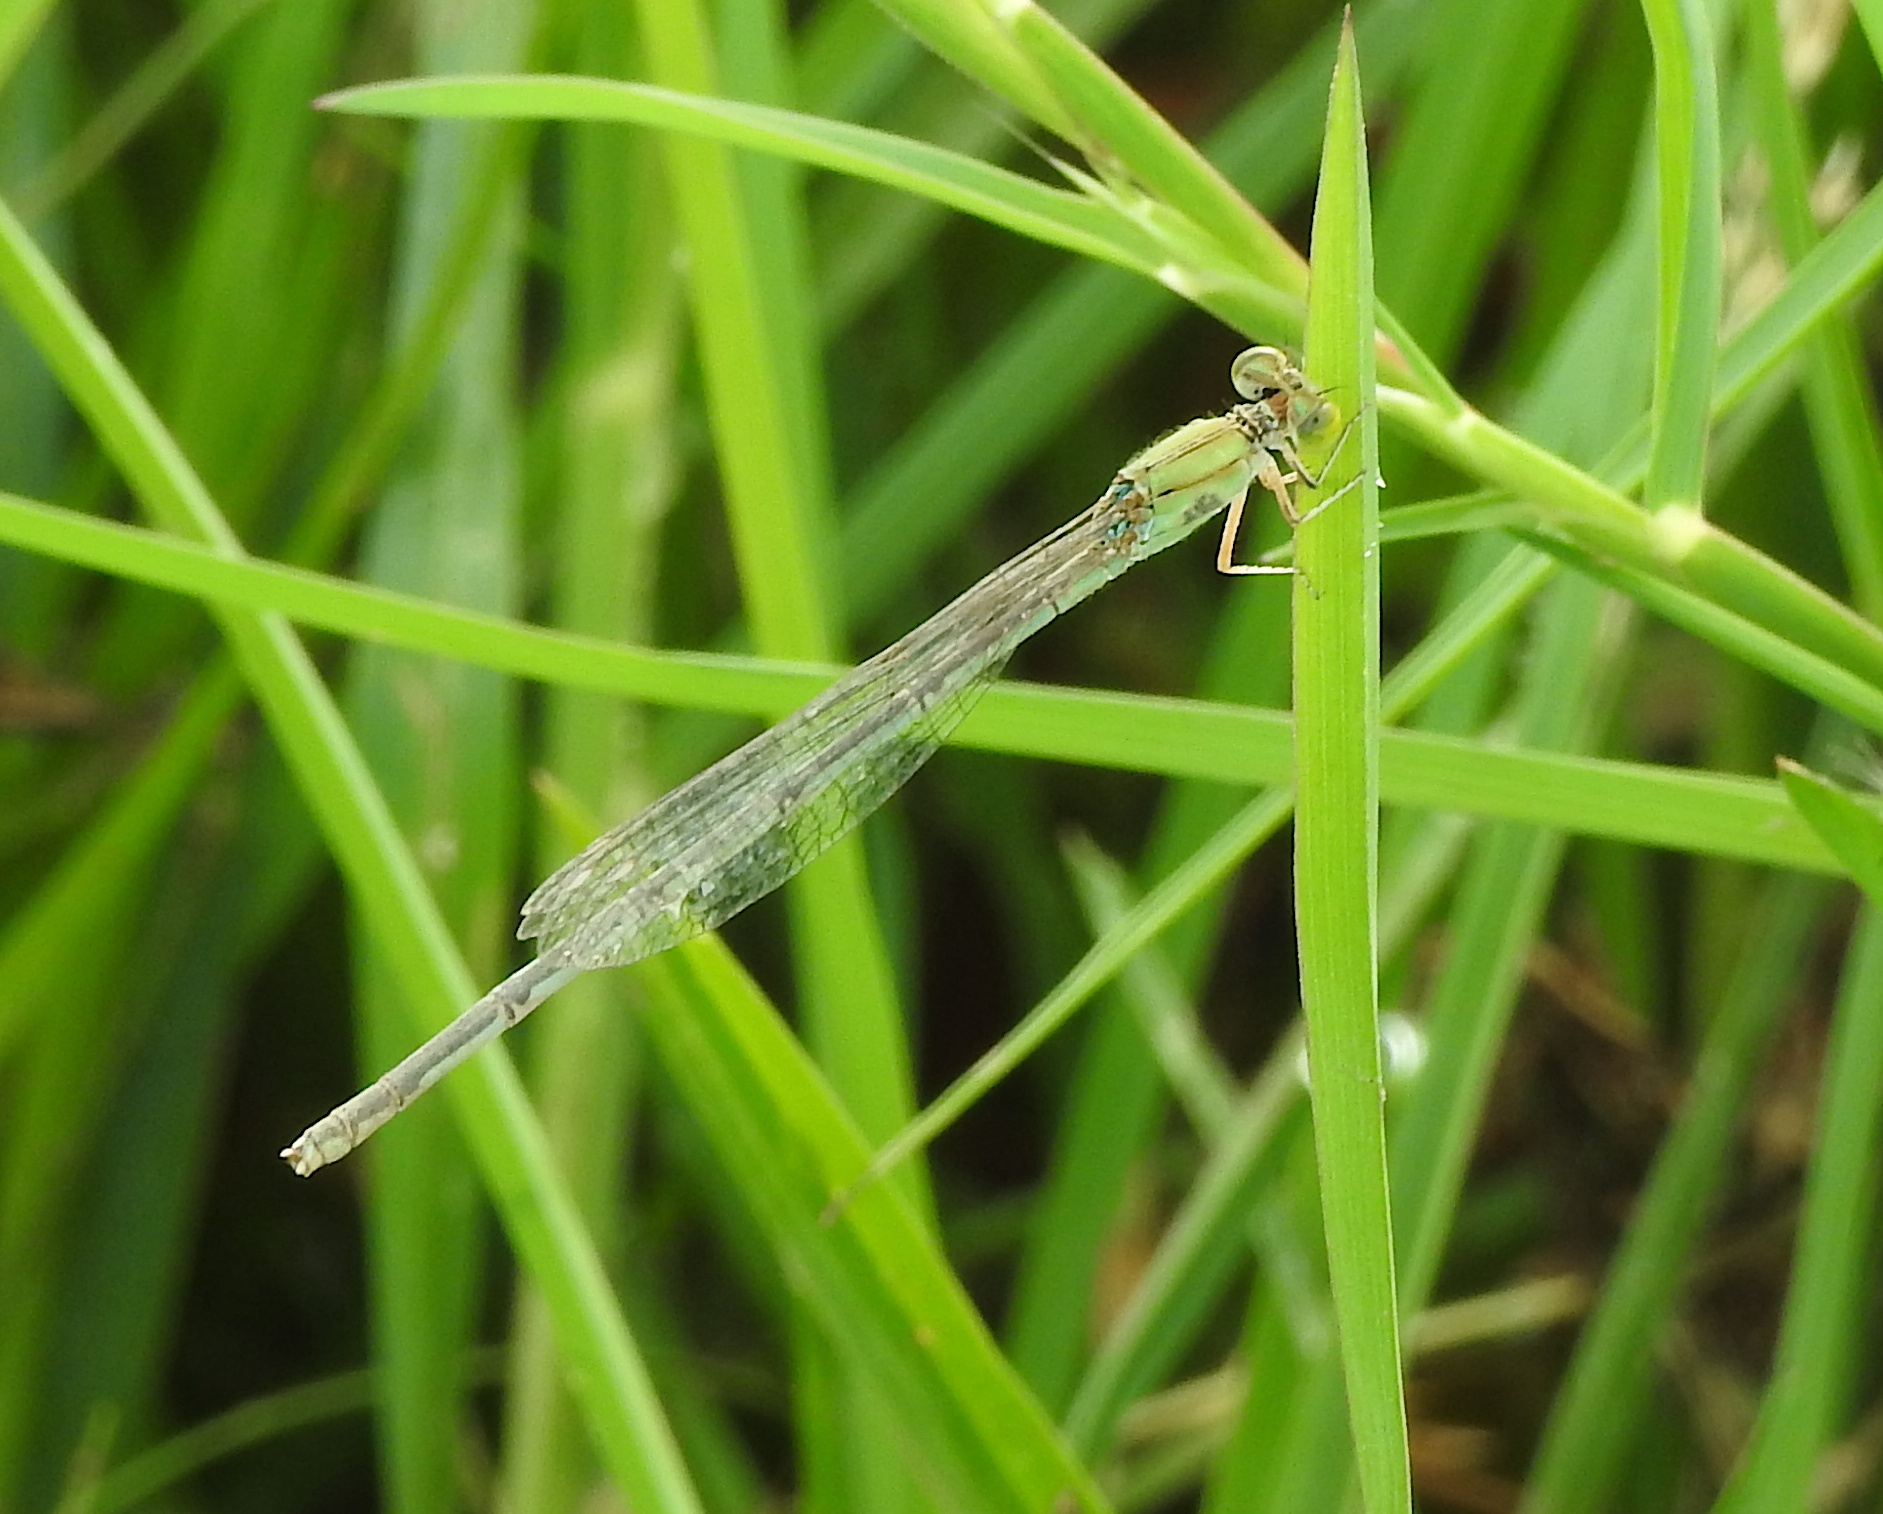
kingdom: Animalia
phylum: Arthropoda
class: Insecta
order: Odonata
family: Coenagrionidae
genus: Pseudagrion
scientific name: Pseudagrion decorum
